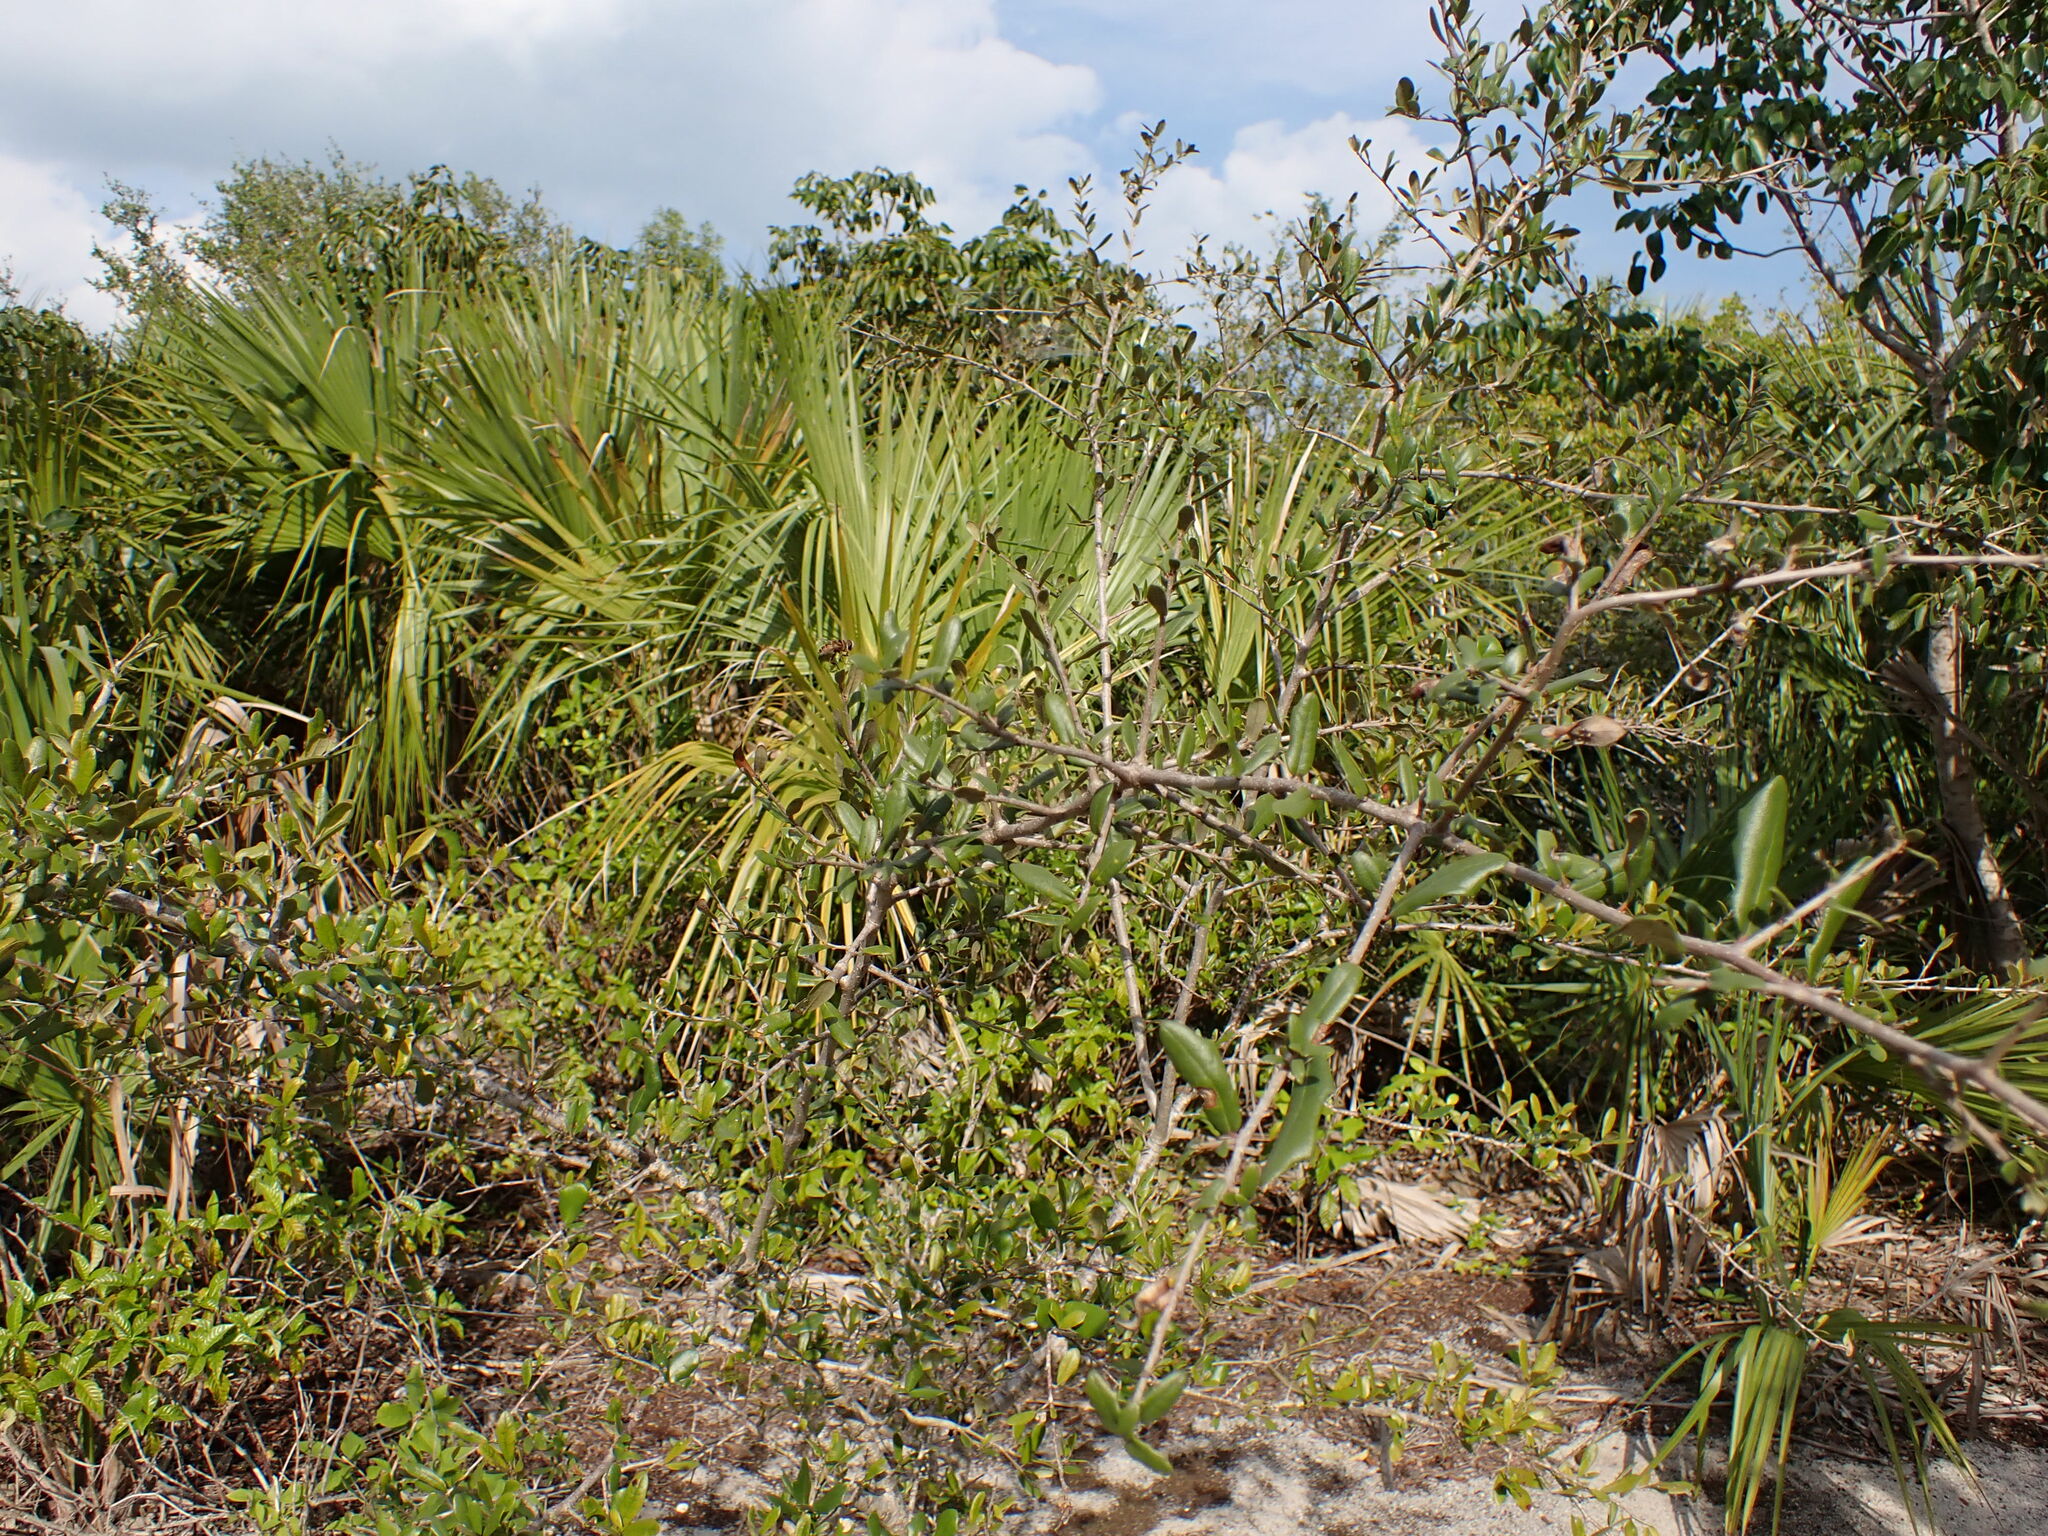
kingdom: Animalia
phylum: Arthropoda
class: Insecta
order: Diptera
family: Syrphidae
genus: Palpada
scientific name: Palpada vinetorum
